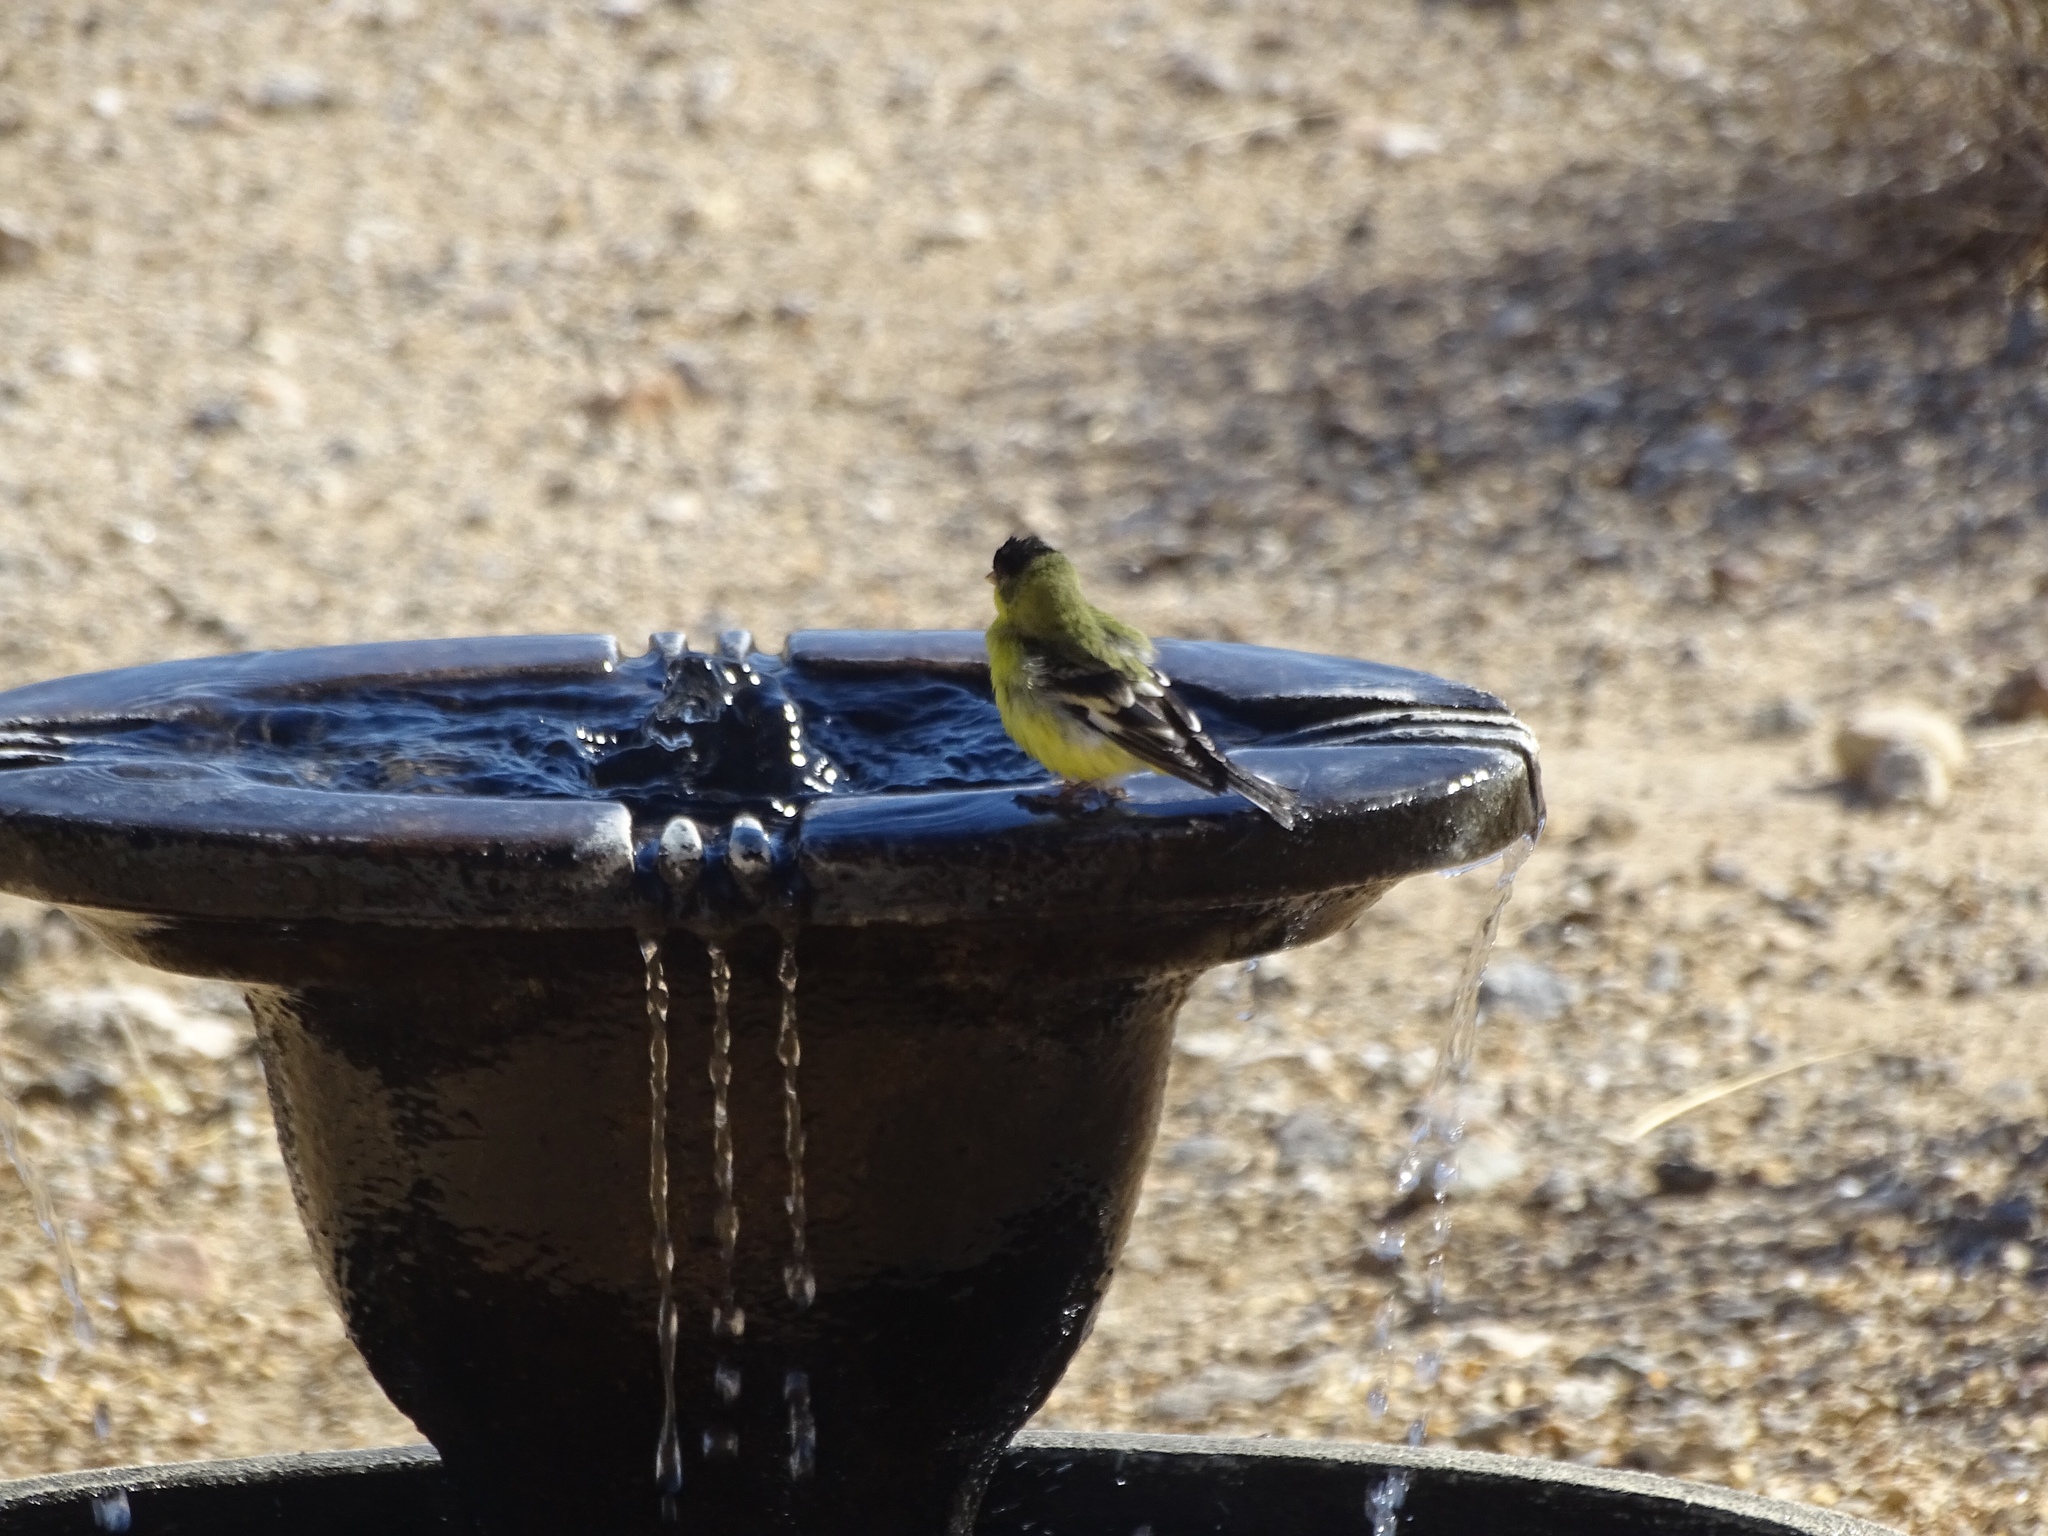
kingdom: Animalia
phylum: Chordata
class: Aves
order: Passeriformes
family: Fringillidae
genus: Spinus
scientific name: Spinus psaltria
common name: Lesser goldfinch
